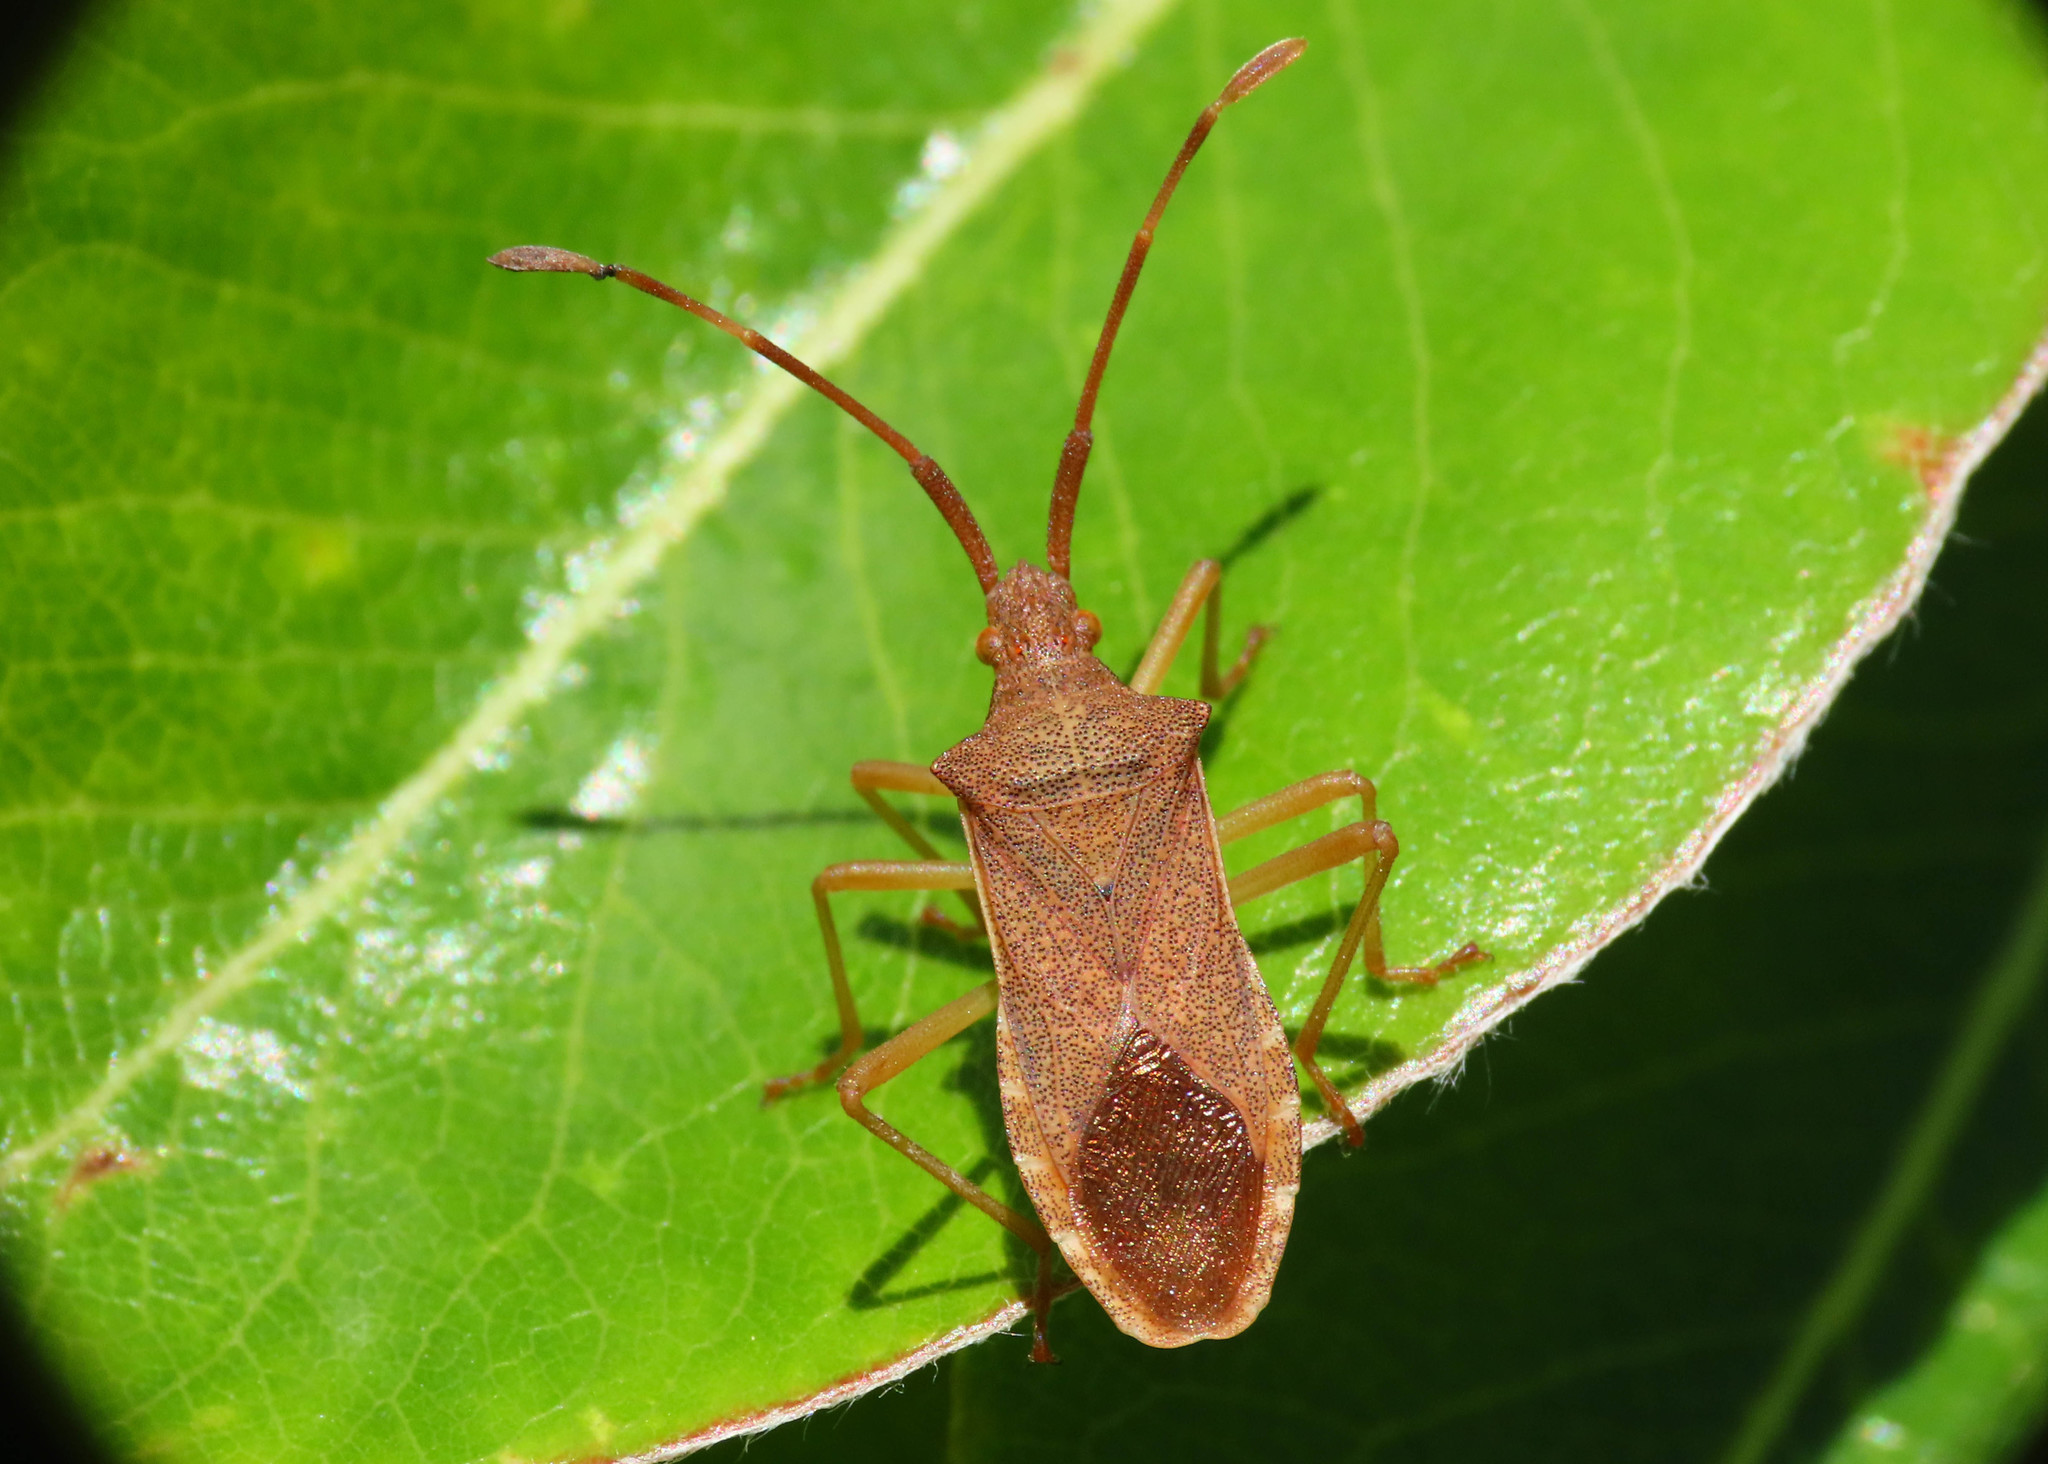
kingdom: Animalia
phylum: Arthropoda
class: Insecta
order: Hemiptera
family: Coreidae
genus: Gonocerus
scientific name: Gonocerus acuteangulatus
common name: Box bug
